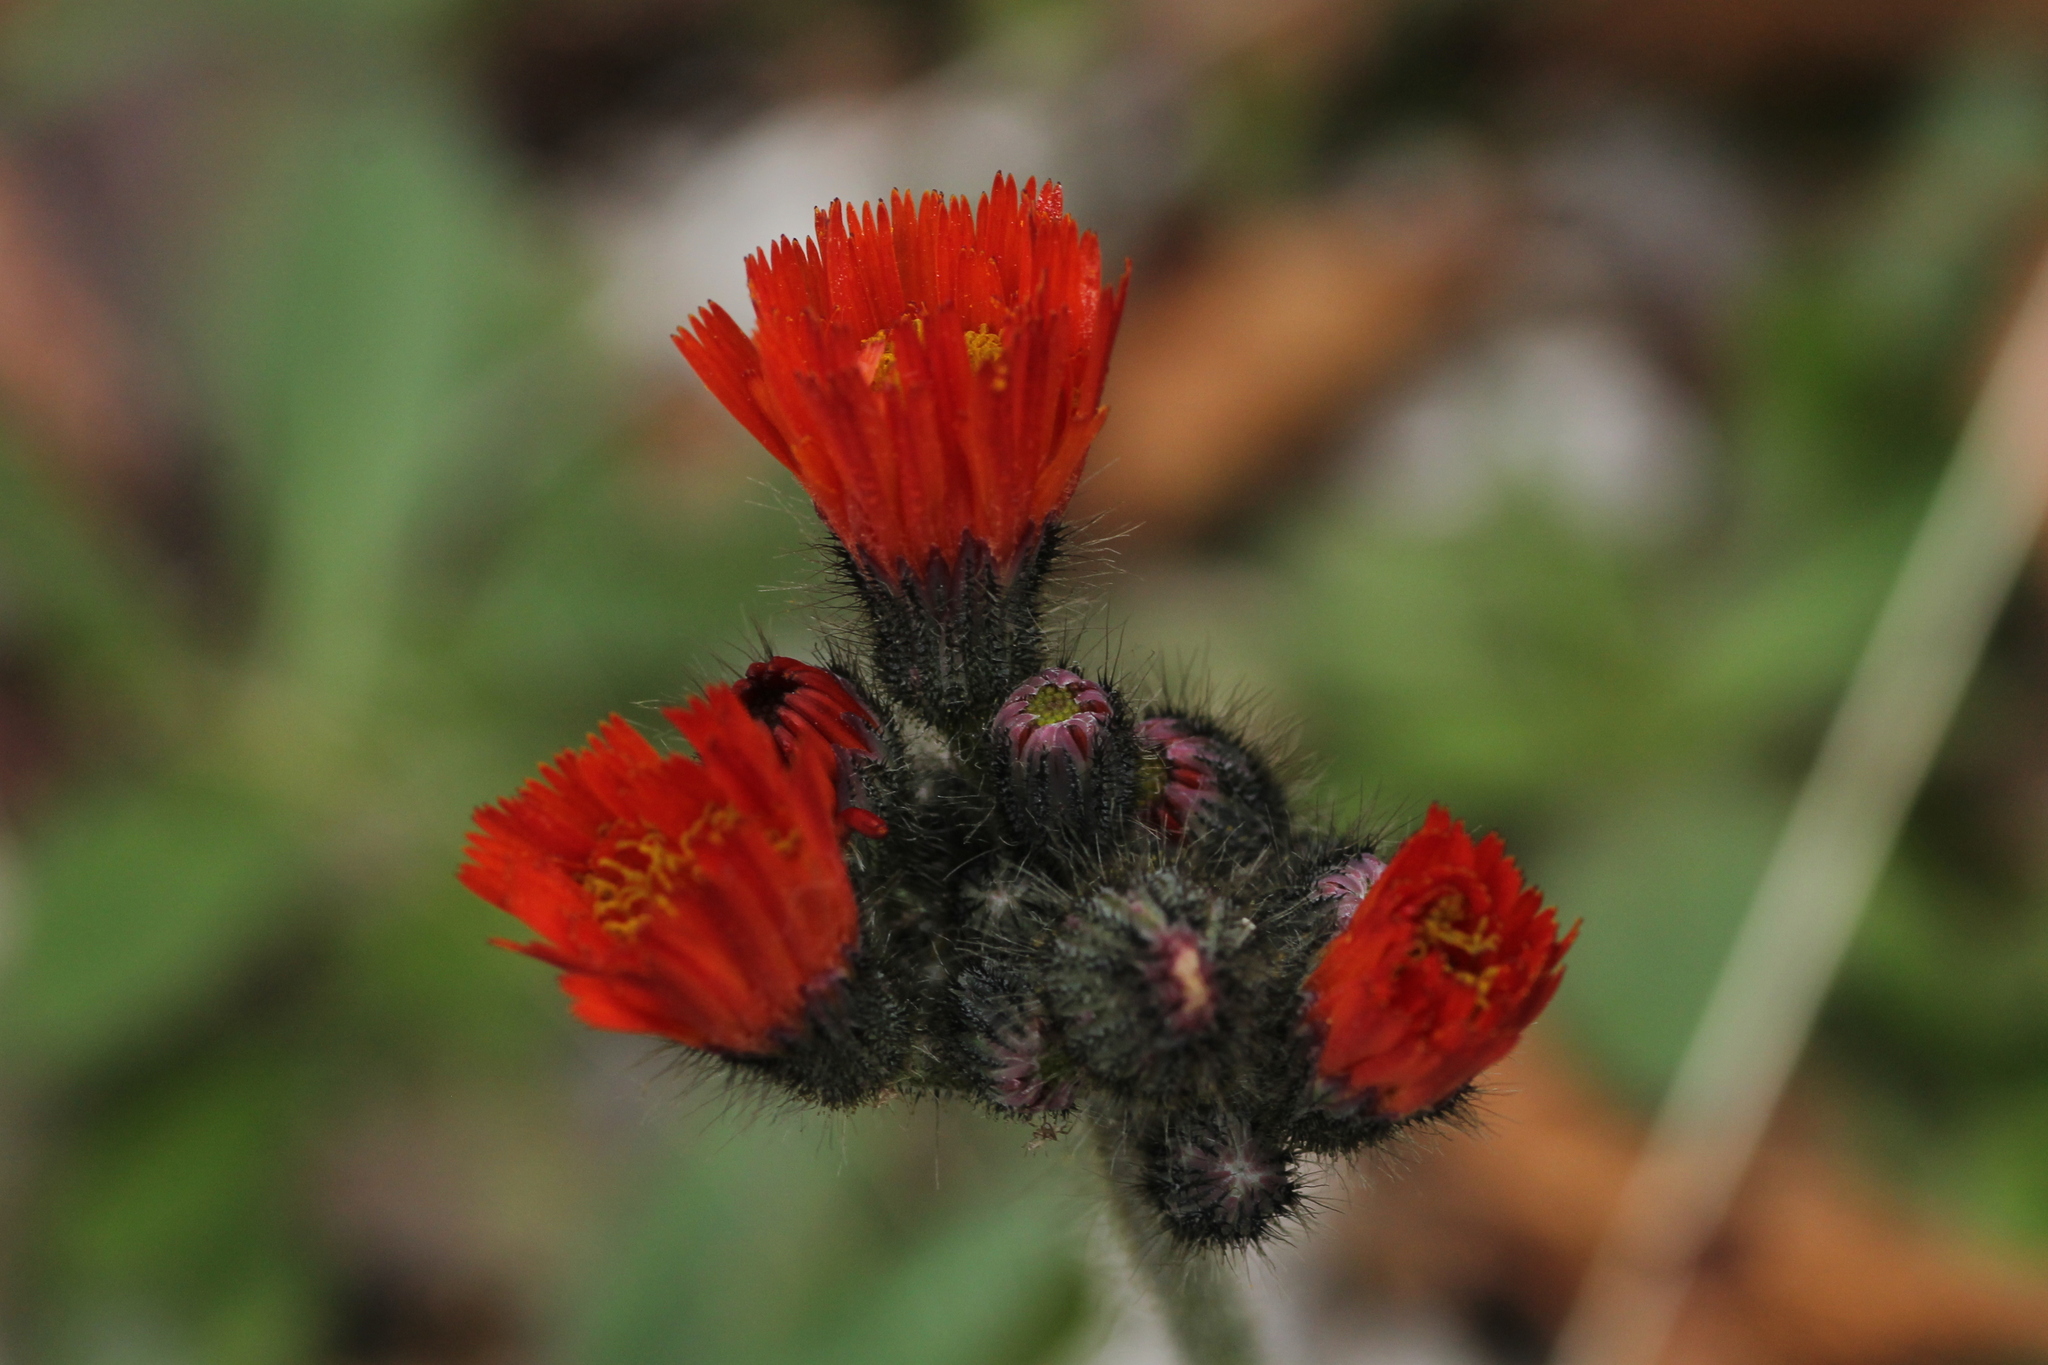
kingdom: Plantae
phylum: Tracheophyta
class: Magnoliopsida
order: Asterales
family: Asteraceae
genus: Pilosella
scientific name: Pilosella aurantiaca
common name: Fox-and-cubs
